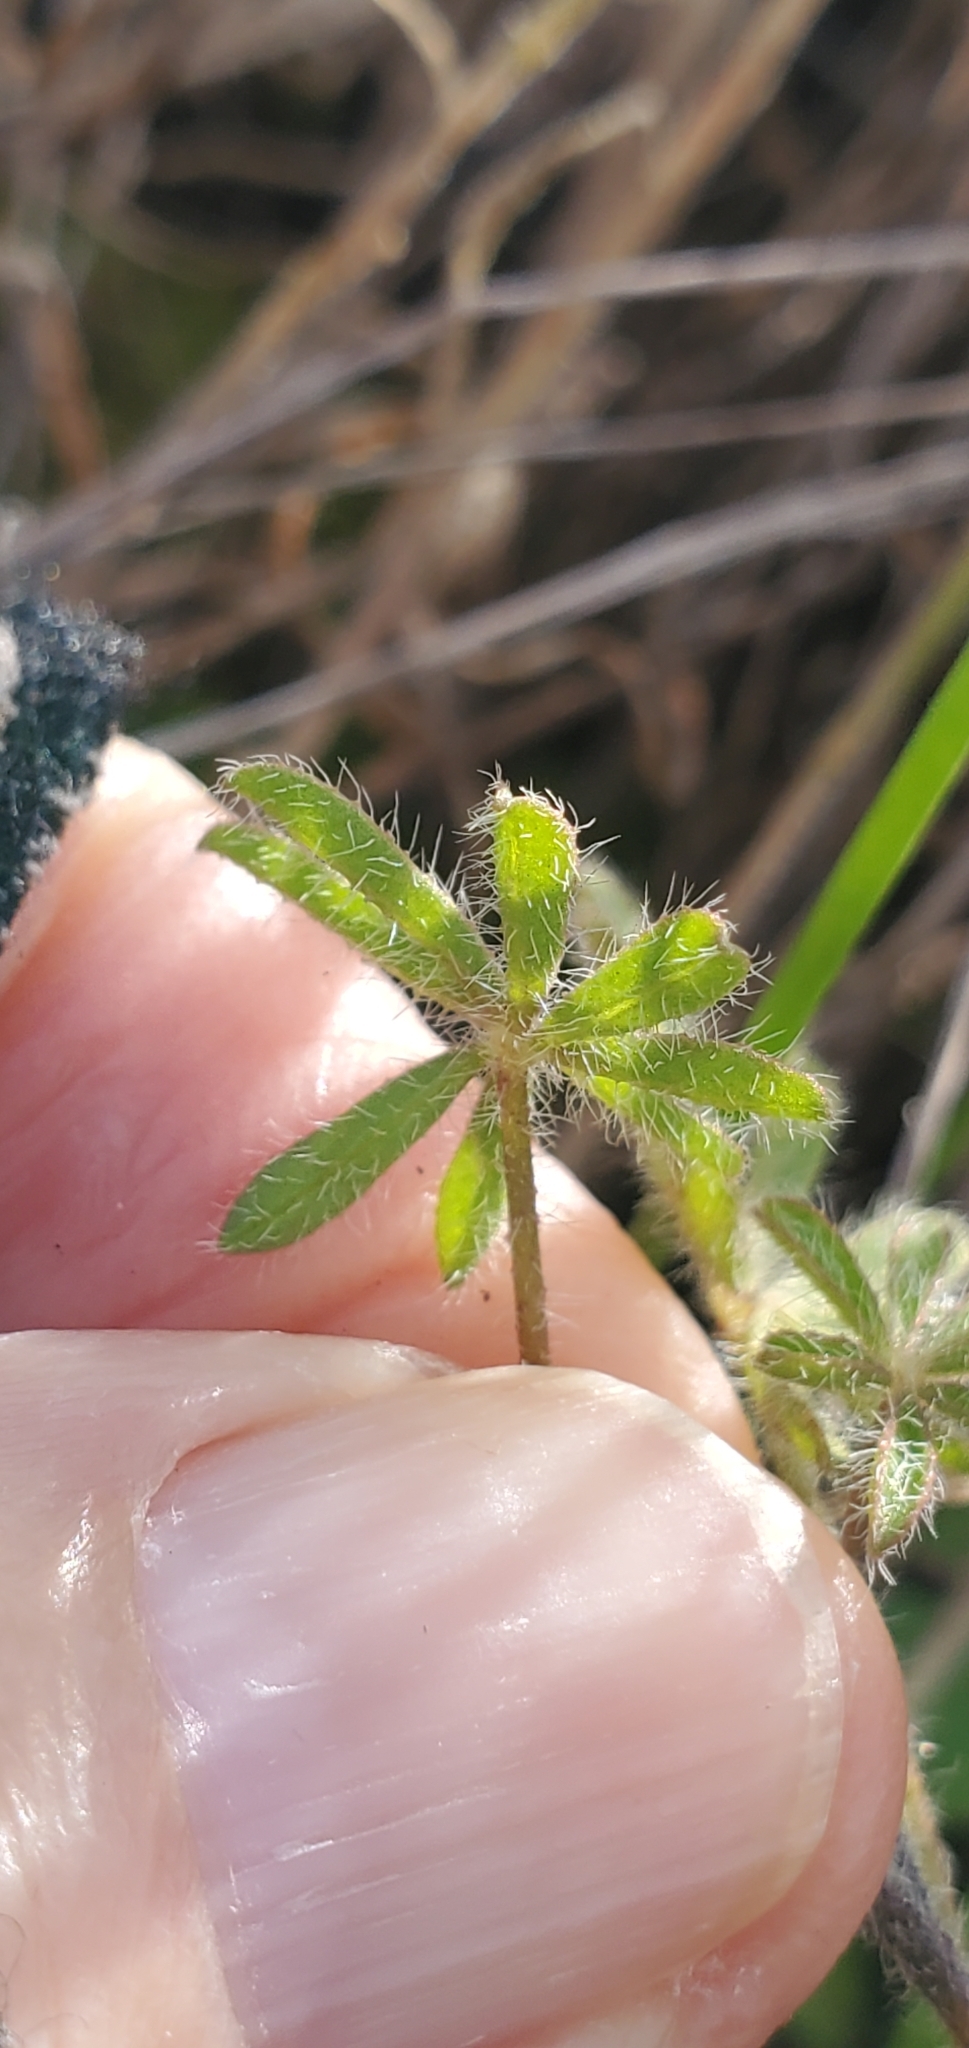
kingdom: Plantae
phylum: Tracheophyta
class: Magnoliopsida
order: Fabales
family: Fabaceae
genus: Lupinus
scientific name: Lupinus concinnus
